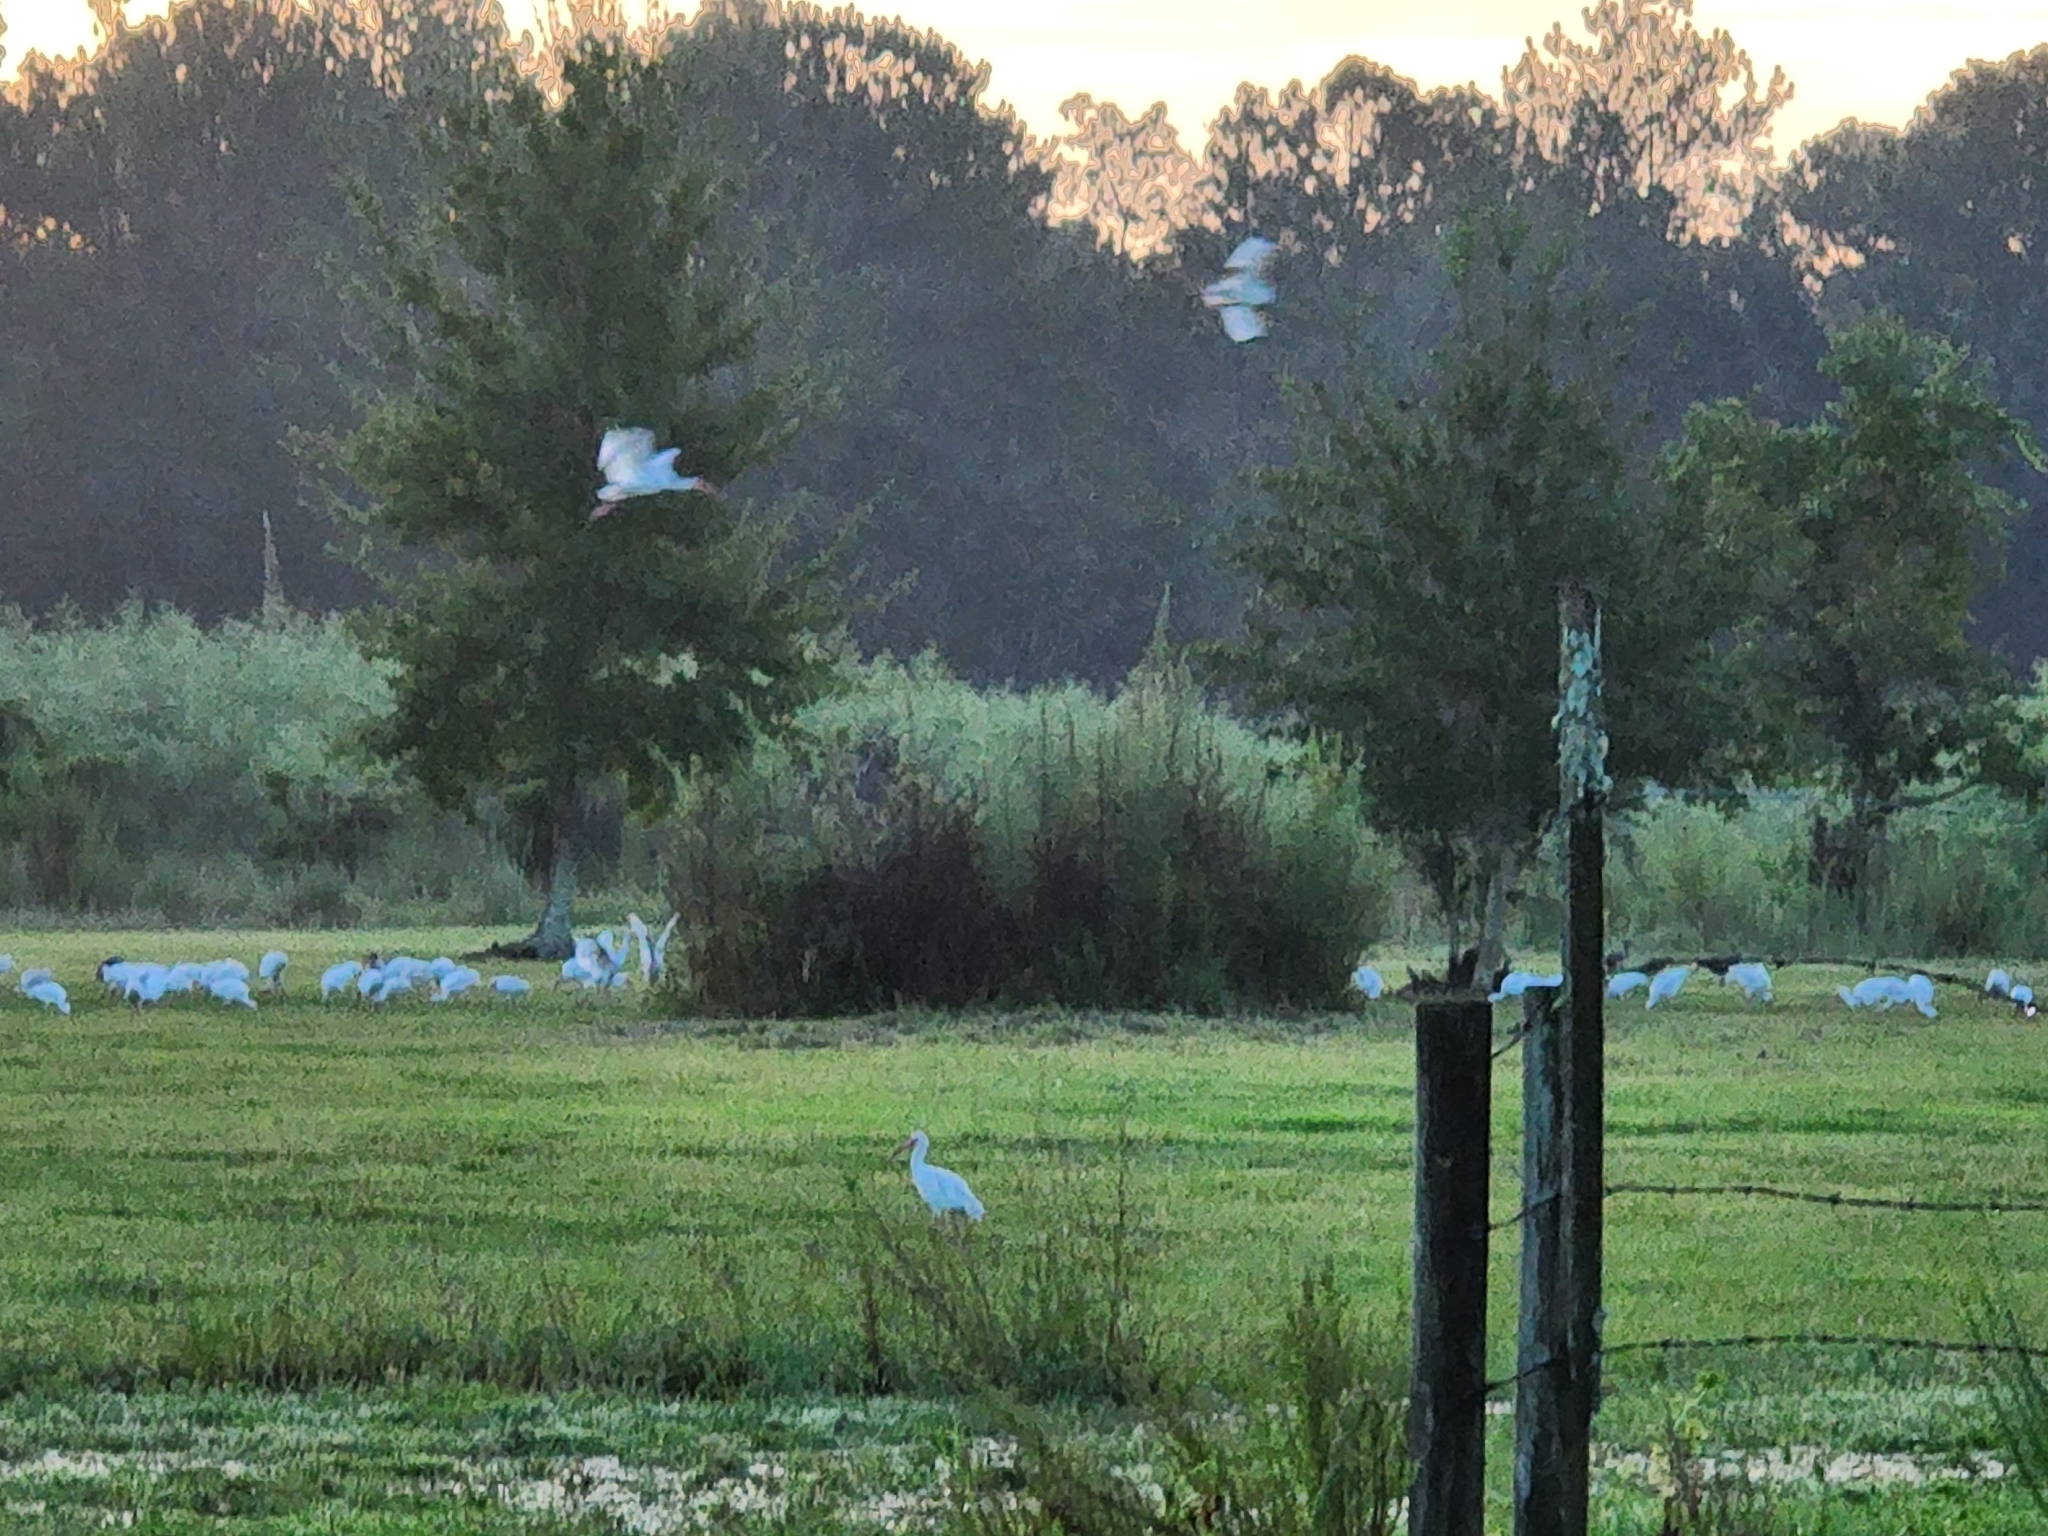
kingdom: Animalia
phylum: Chordata
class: Aves
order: Pelecaniformes
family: Threskiornithidae
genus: Eudocimus
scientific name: Eudocimus albus
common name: White ibis
